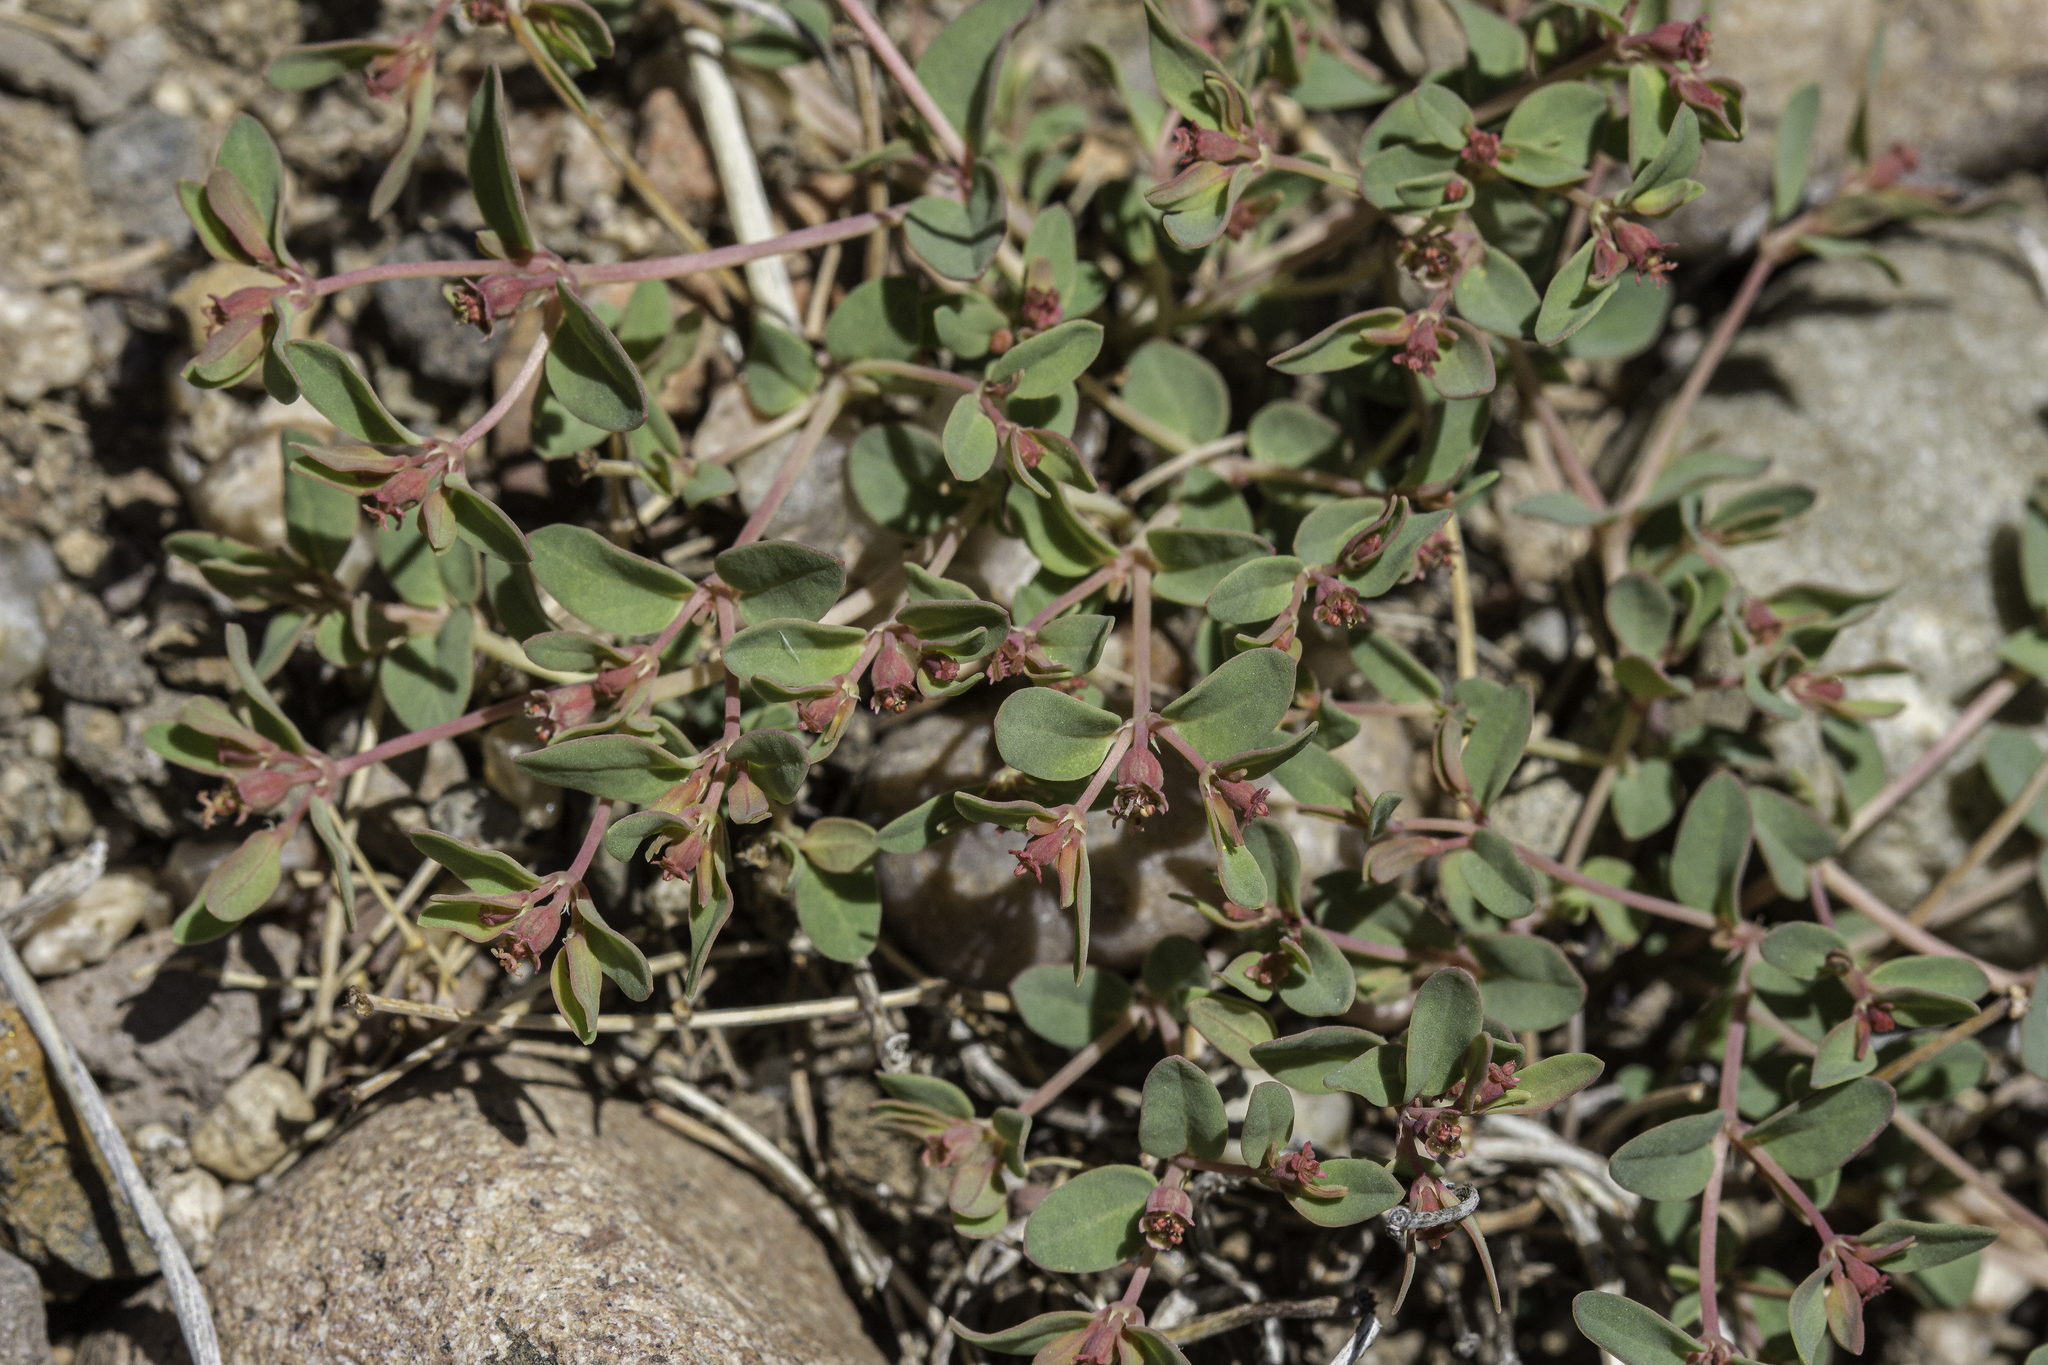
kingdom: Plantae
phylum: Tracheophyta
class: Magnoliopsida
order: Malpighiales
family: Euphorbiaceae
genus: Euphorbia
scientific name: Euphorbia fendleri
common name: Fendler's euphorbia
